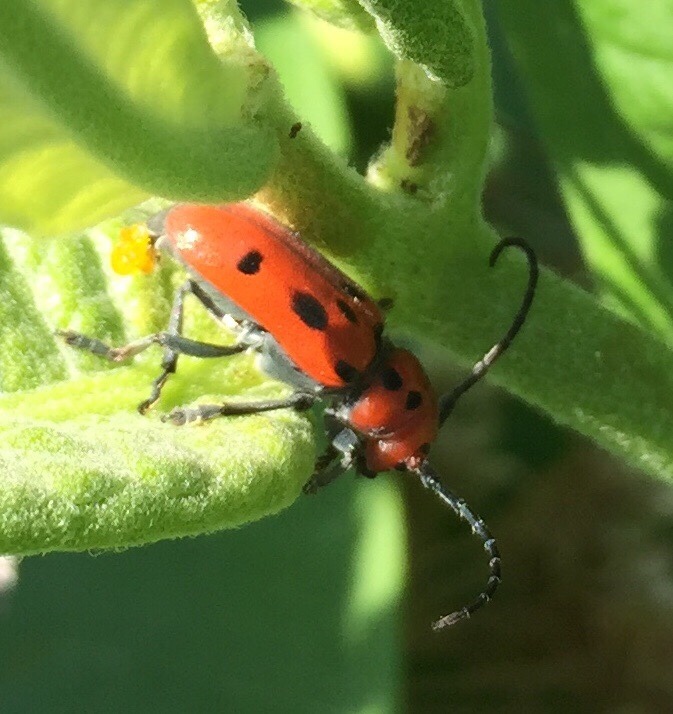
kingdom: Animalia
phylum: Arthropoda
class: Insecta
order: Coleoptera
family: Cerambycidae
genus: Tetraopes
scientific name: Tetraopes tetrophthalmus
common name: Red milkweed beetle
